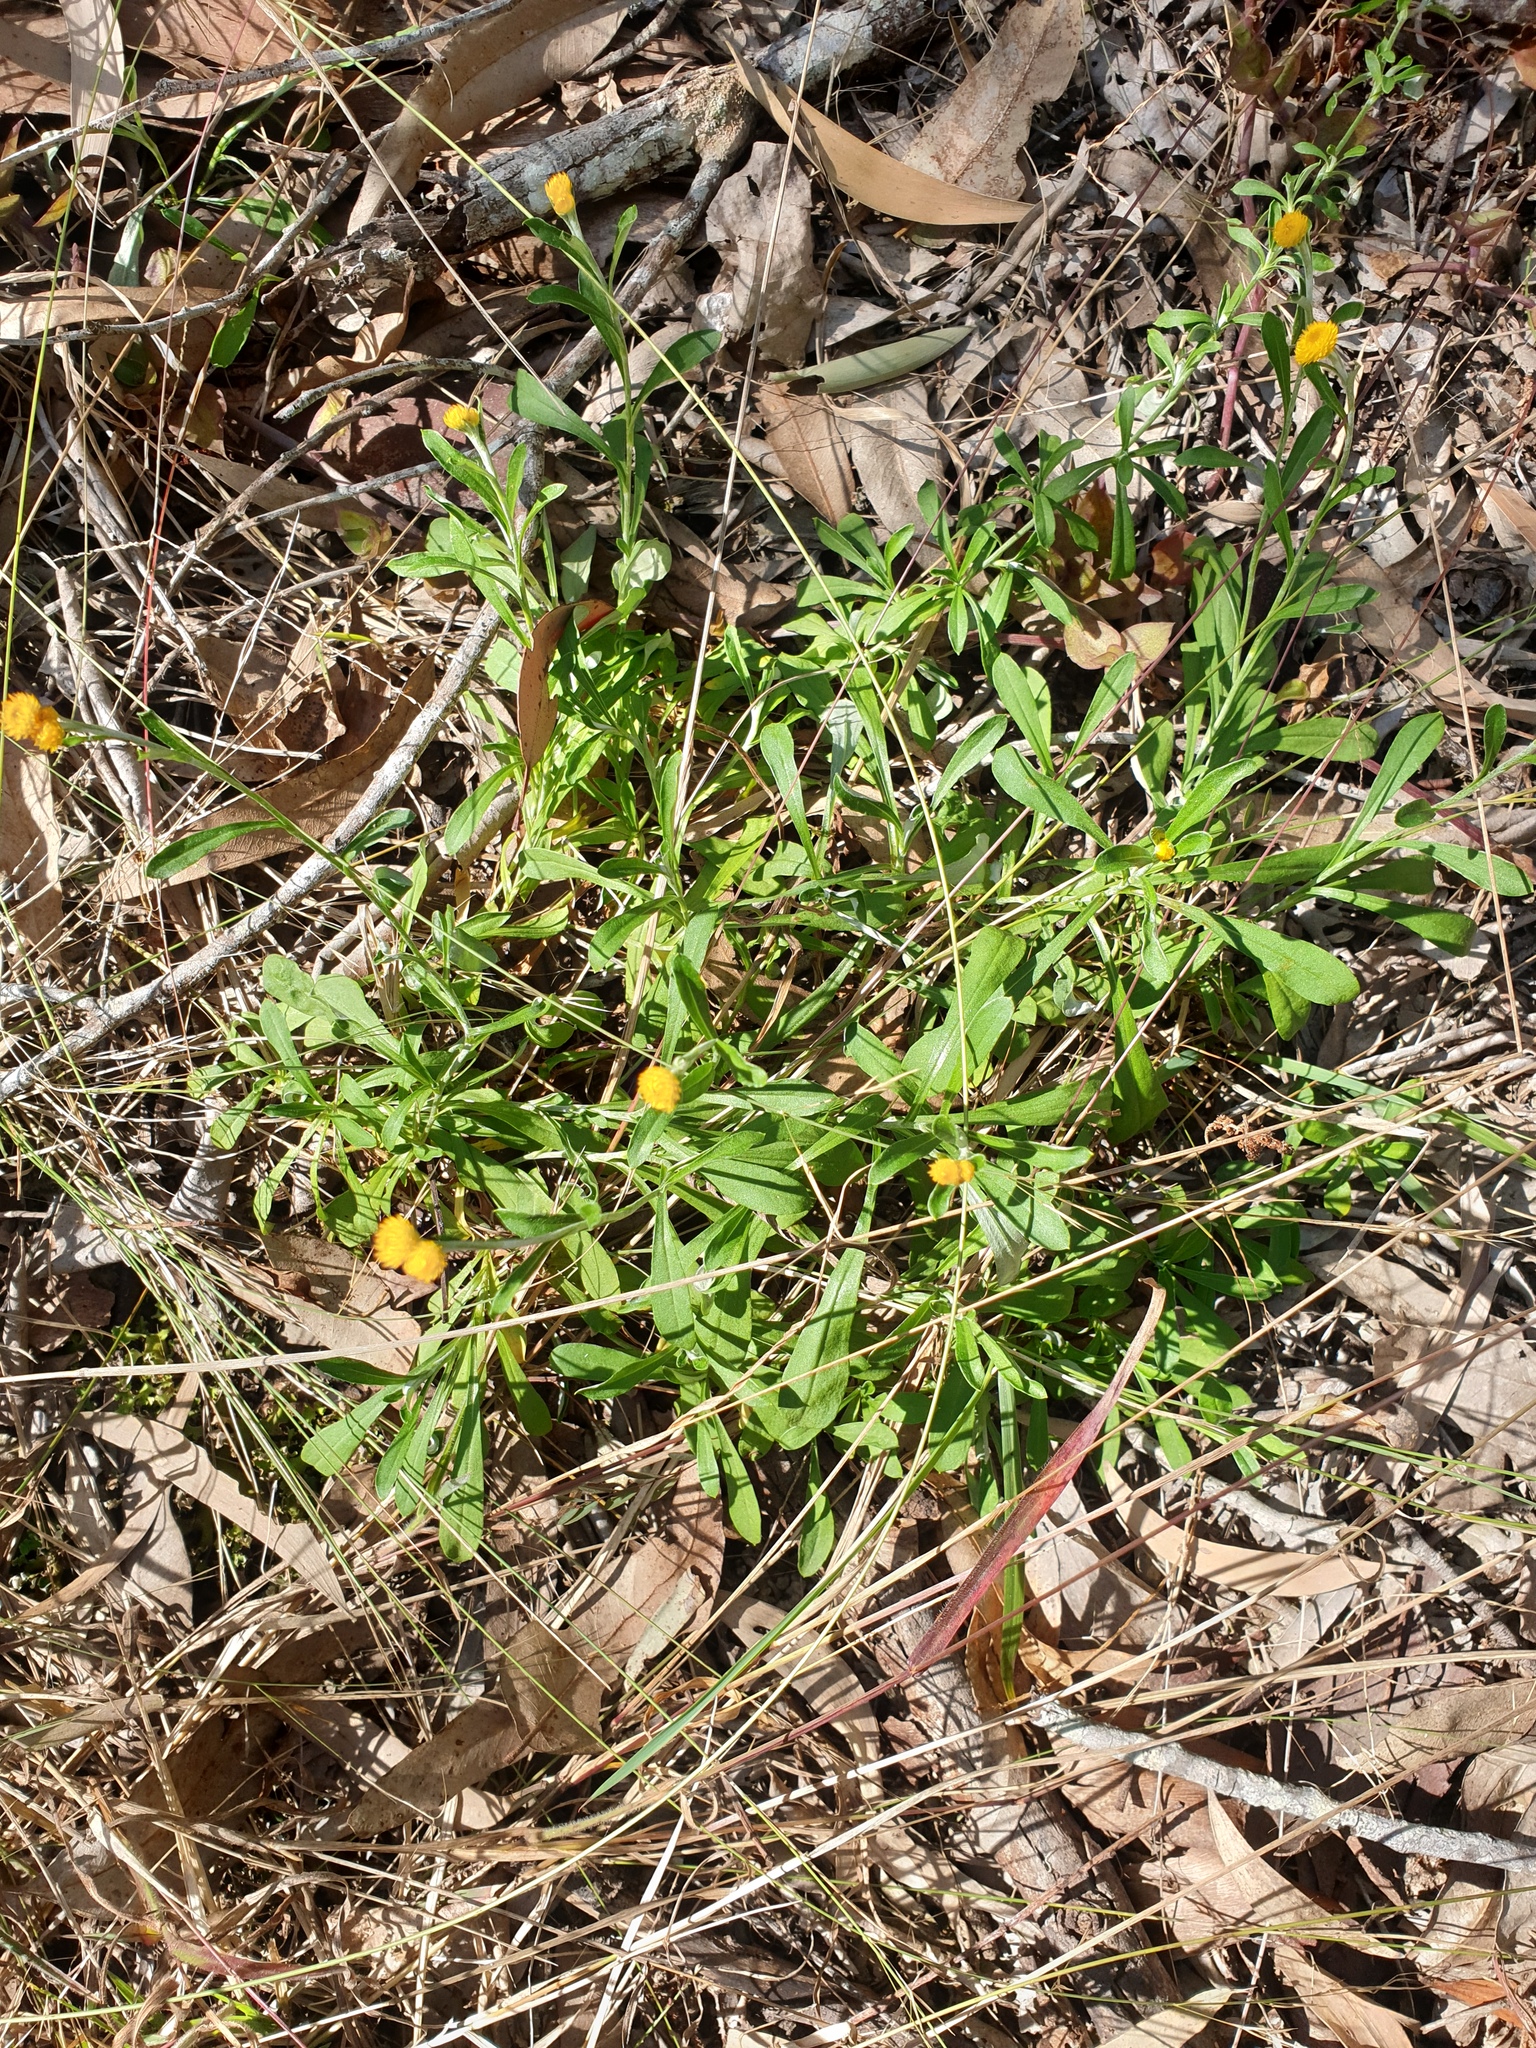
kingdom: Plantae
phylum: Tracheophyta
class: Magnoliopsida
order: Asterales
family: Asteraceae
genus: Chrysocephalum
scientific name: Chrysocephalum apiculatum
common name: Common everlasting
